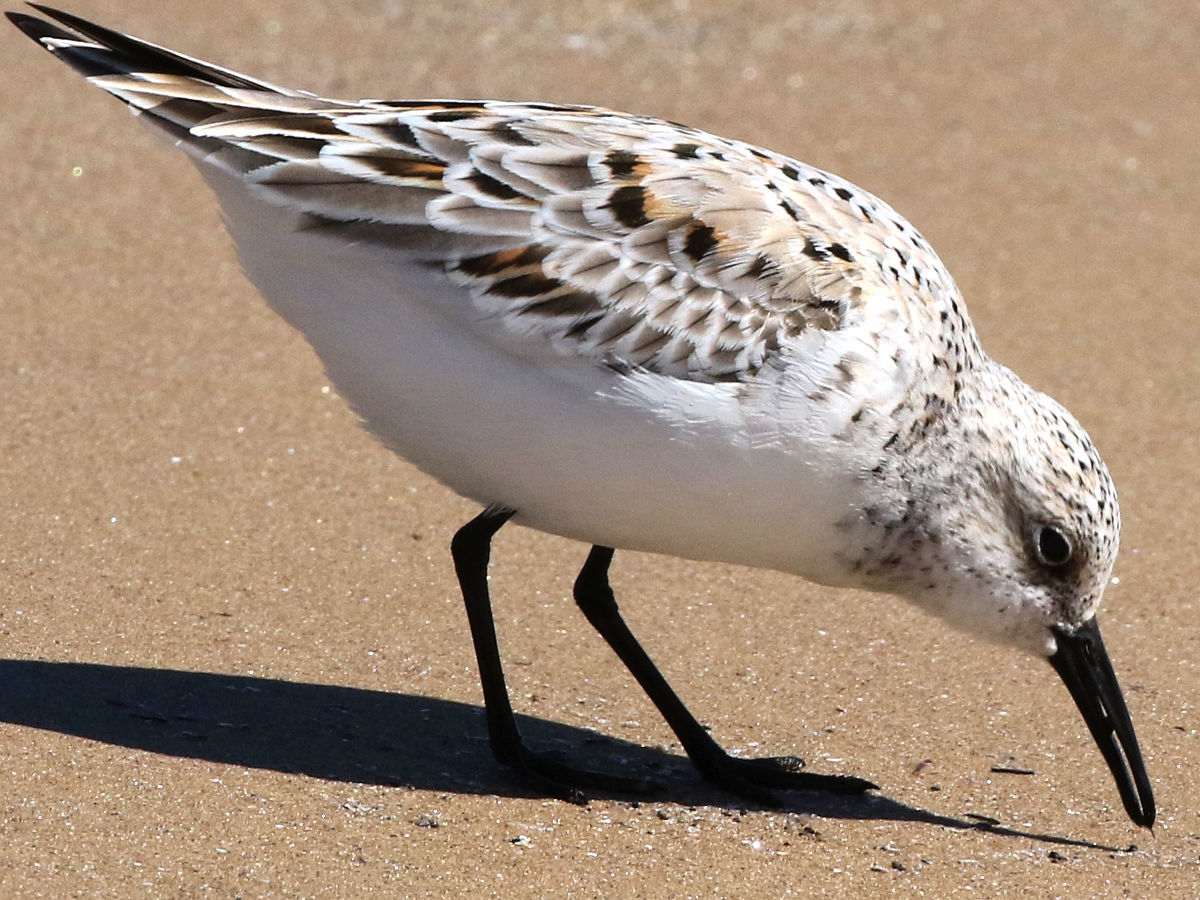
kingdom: Animalia
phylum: Chordata
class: Aves
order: Charadriiformes
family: Scolopacidae
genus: Calidris
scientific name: Calidris alba
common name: Sanderling
